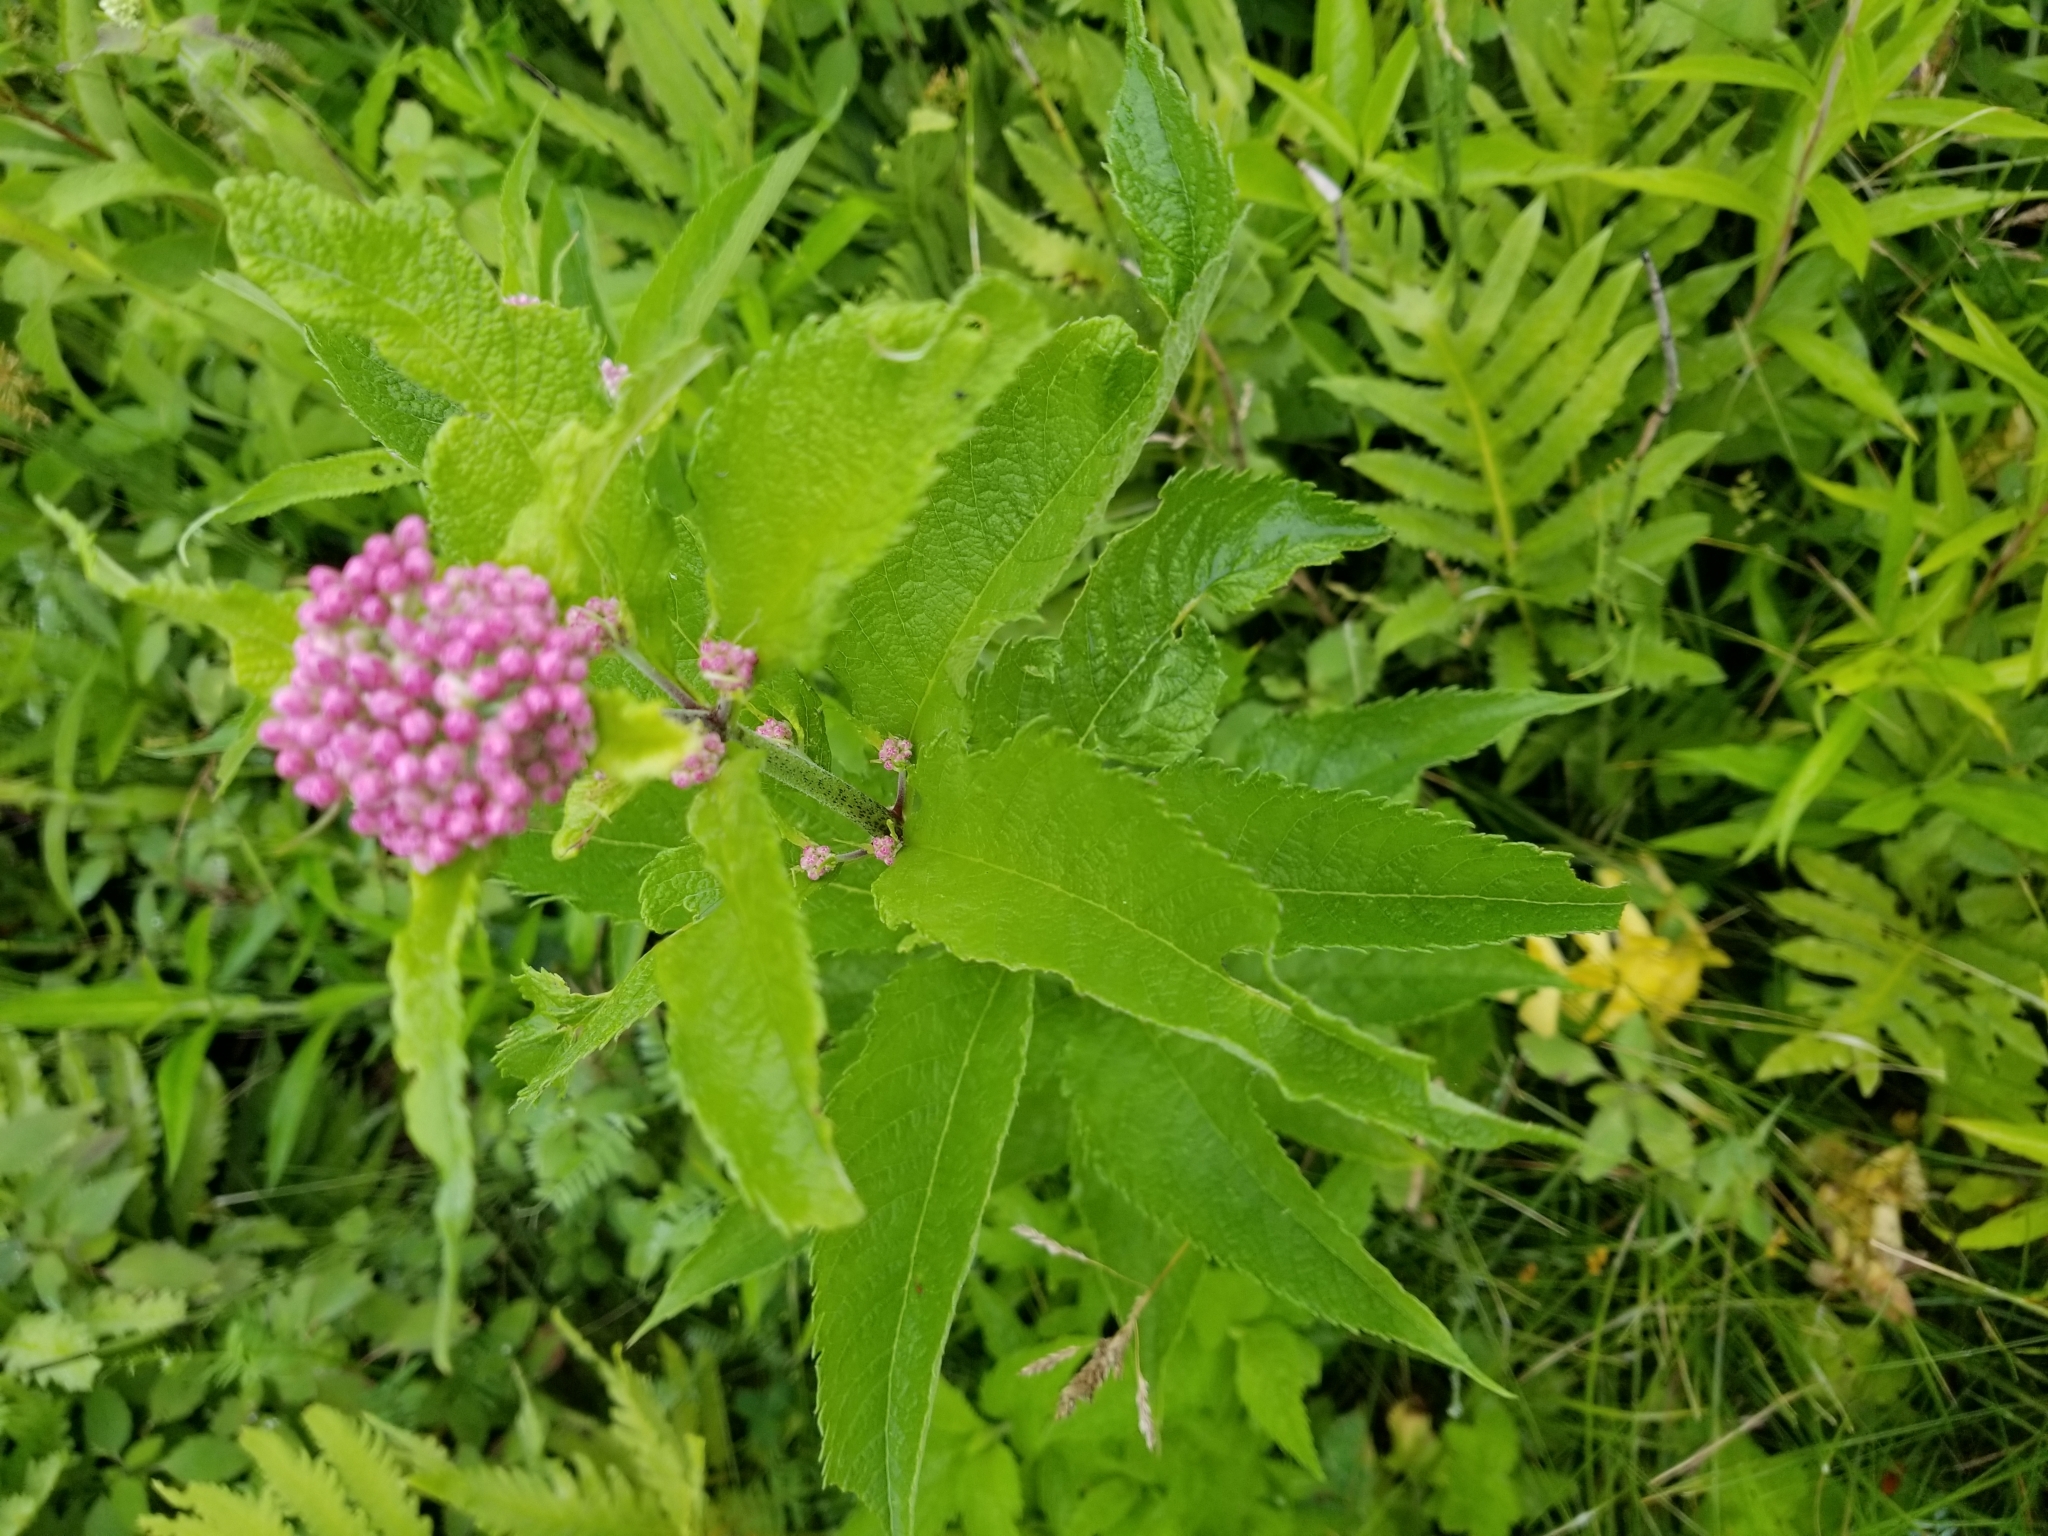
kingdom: Plantae
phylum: Tracheophyta
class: Magnoliopsida
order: Asterales
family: Asteraceae
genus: Eutrochium
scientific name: Eutrochium maculatum
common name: Spotted joe pye weed
